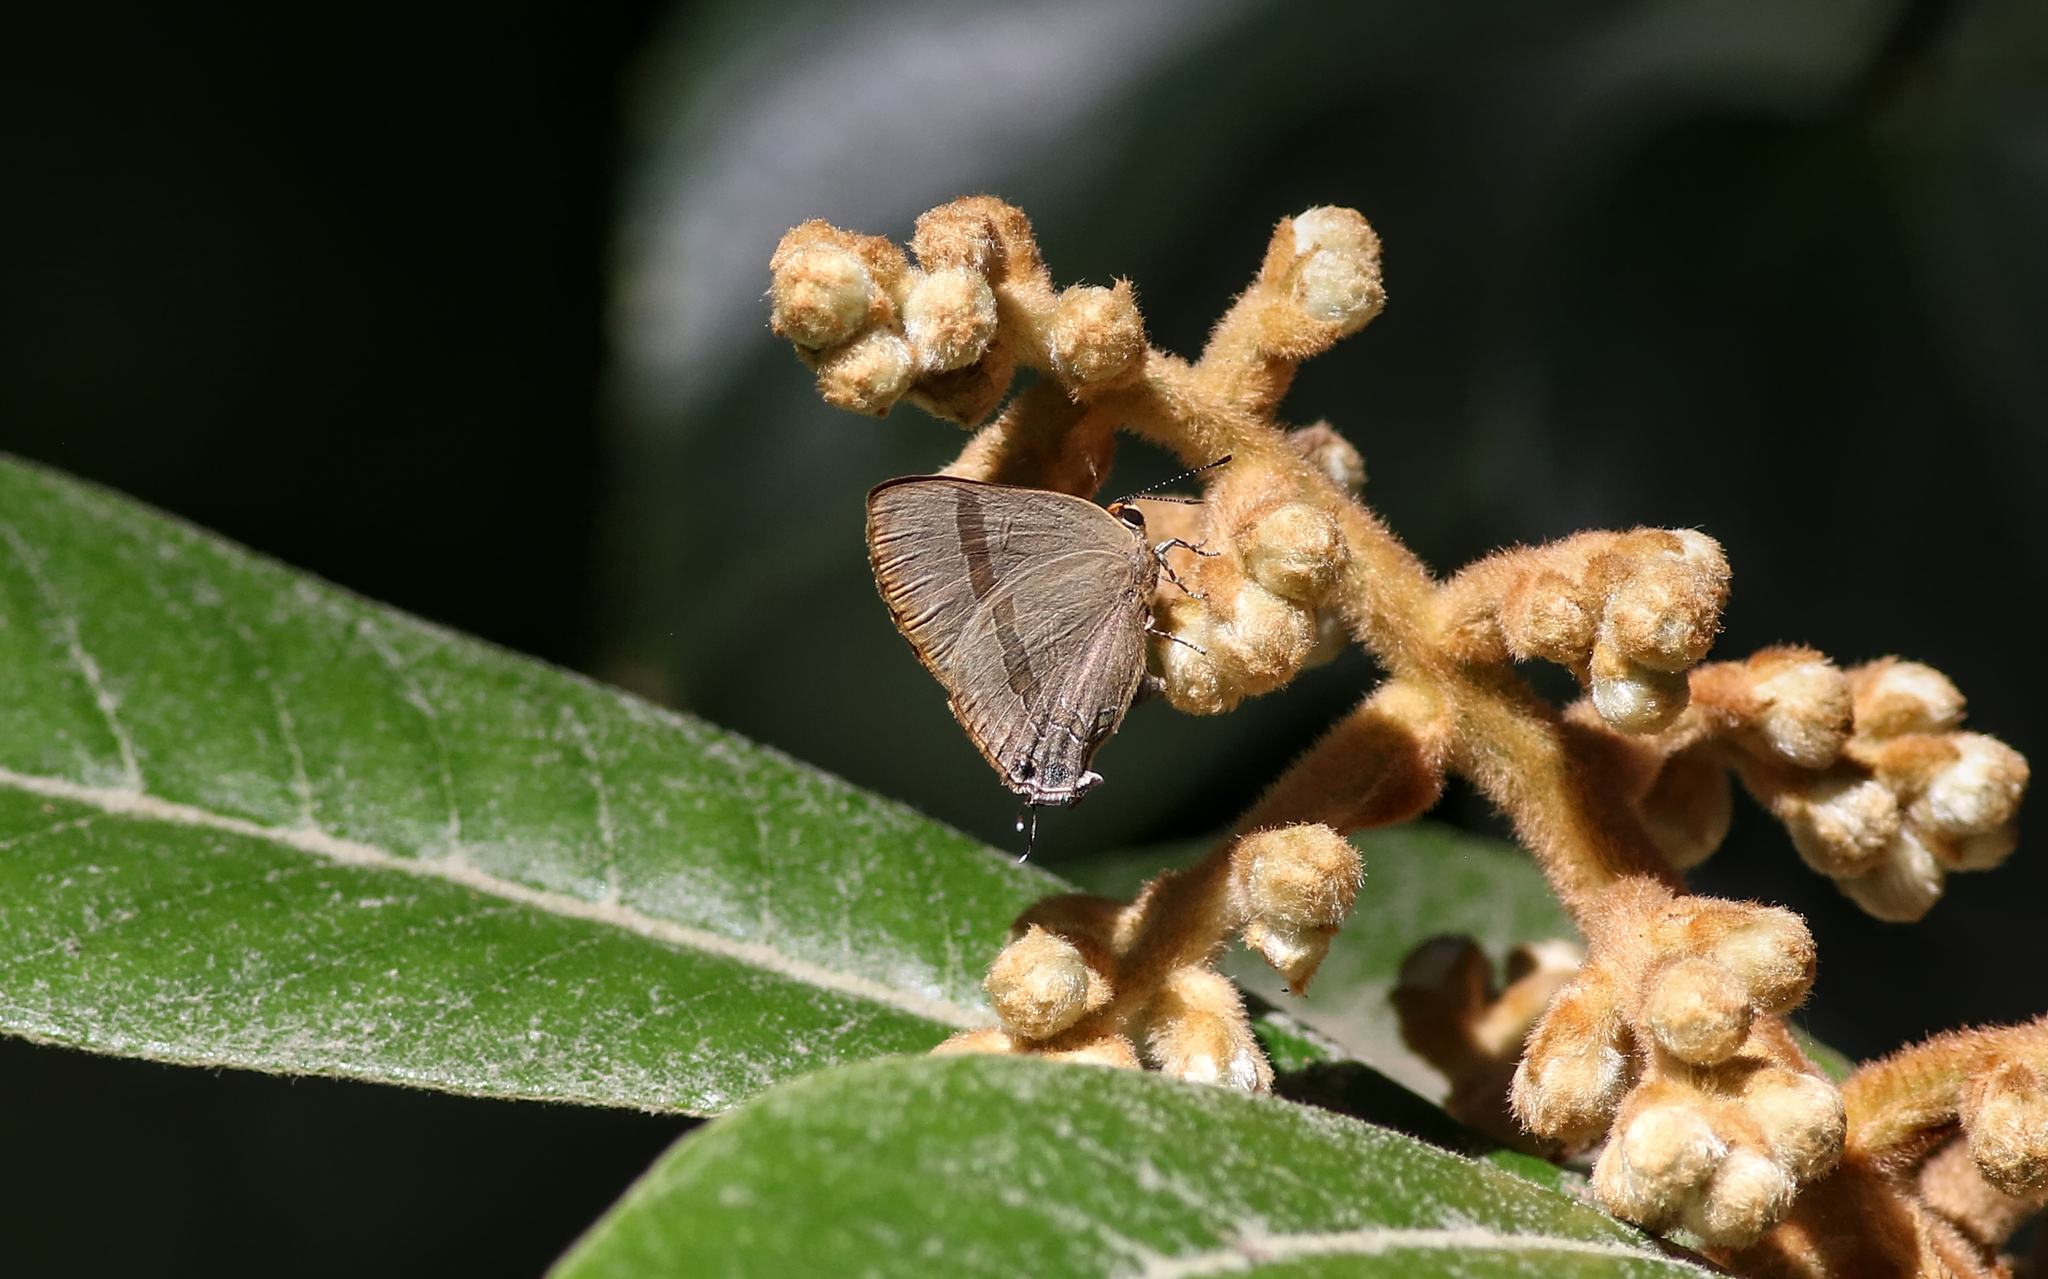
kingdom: Animalia
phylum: Arthropoda
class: Insecta
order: Lepidoptera
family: Lycaenidae
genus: Rapala
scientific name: Rapala varuna
